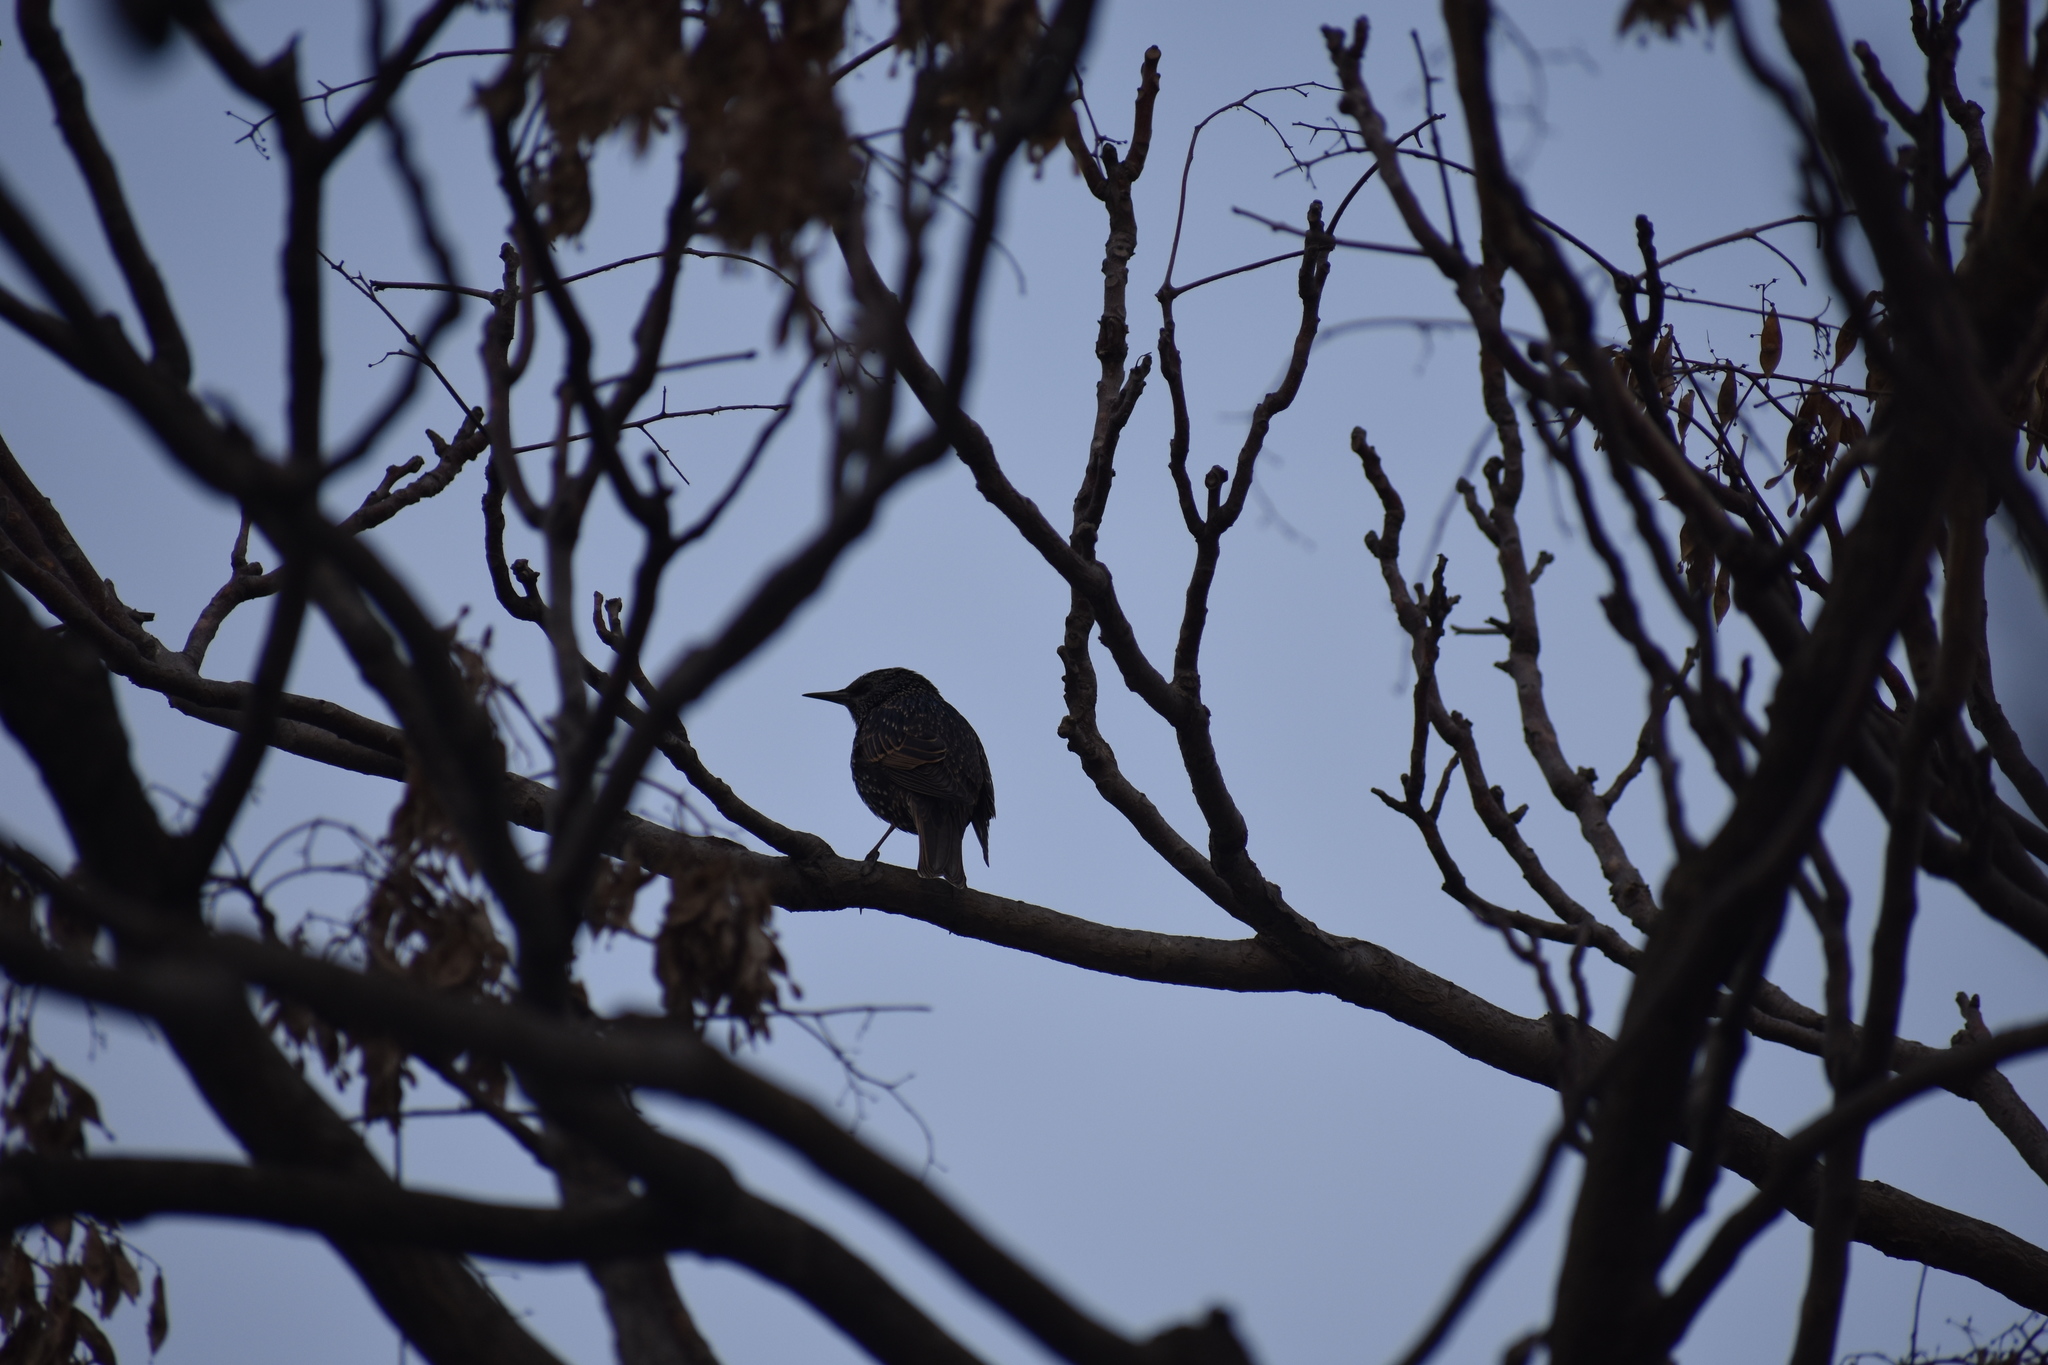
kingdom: Animalia
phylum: Chordata
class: Aves
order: Passeriformes
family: Sturnidae
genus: Sturnus
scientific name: Sturnus vulgaris
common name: Common starling
